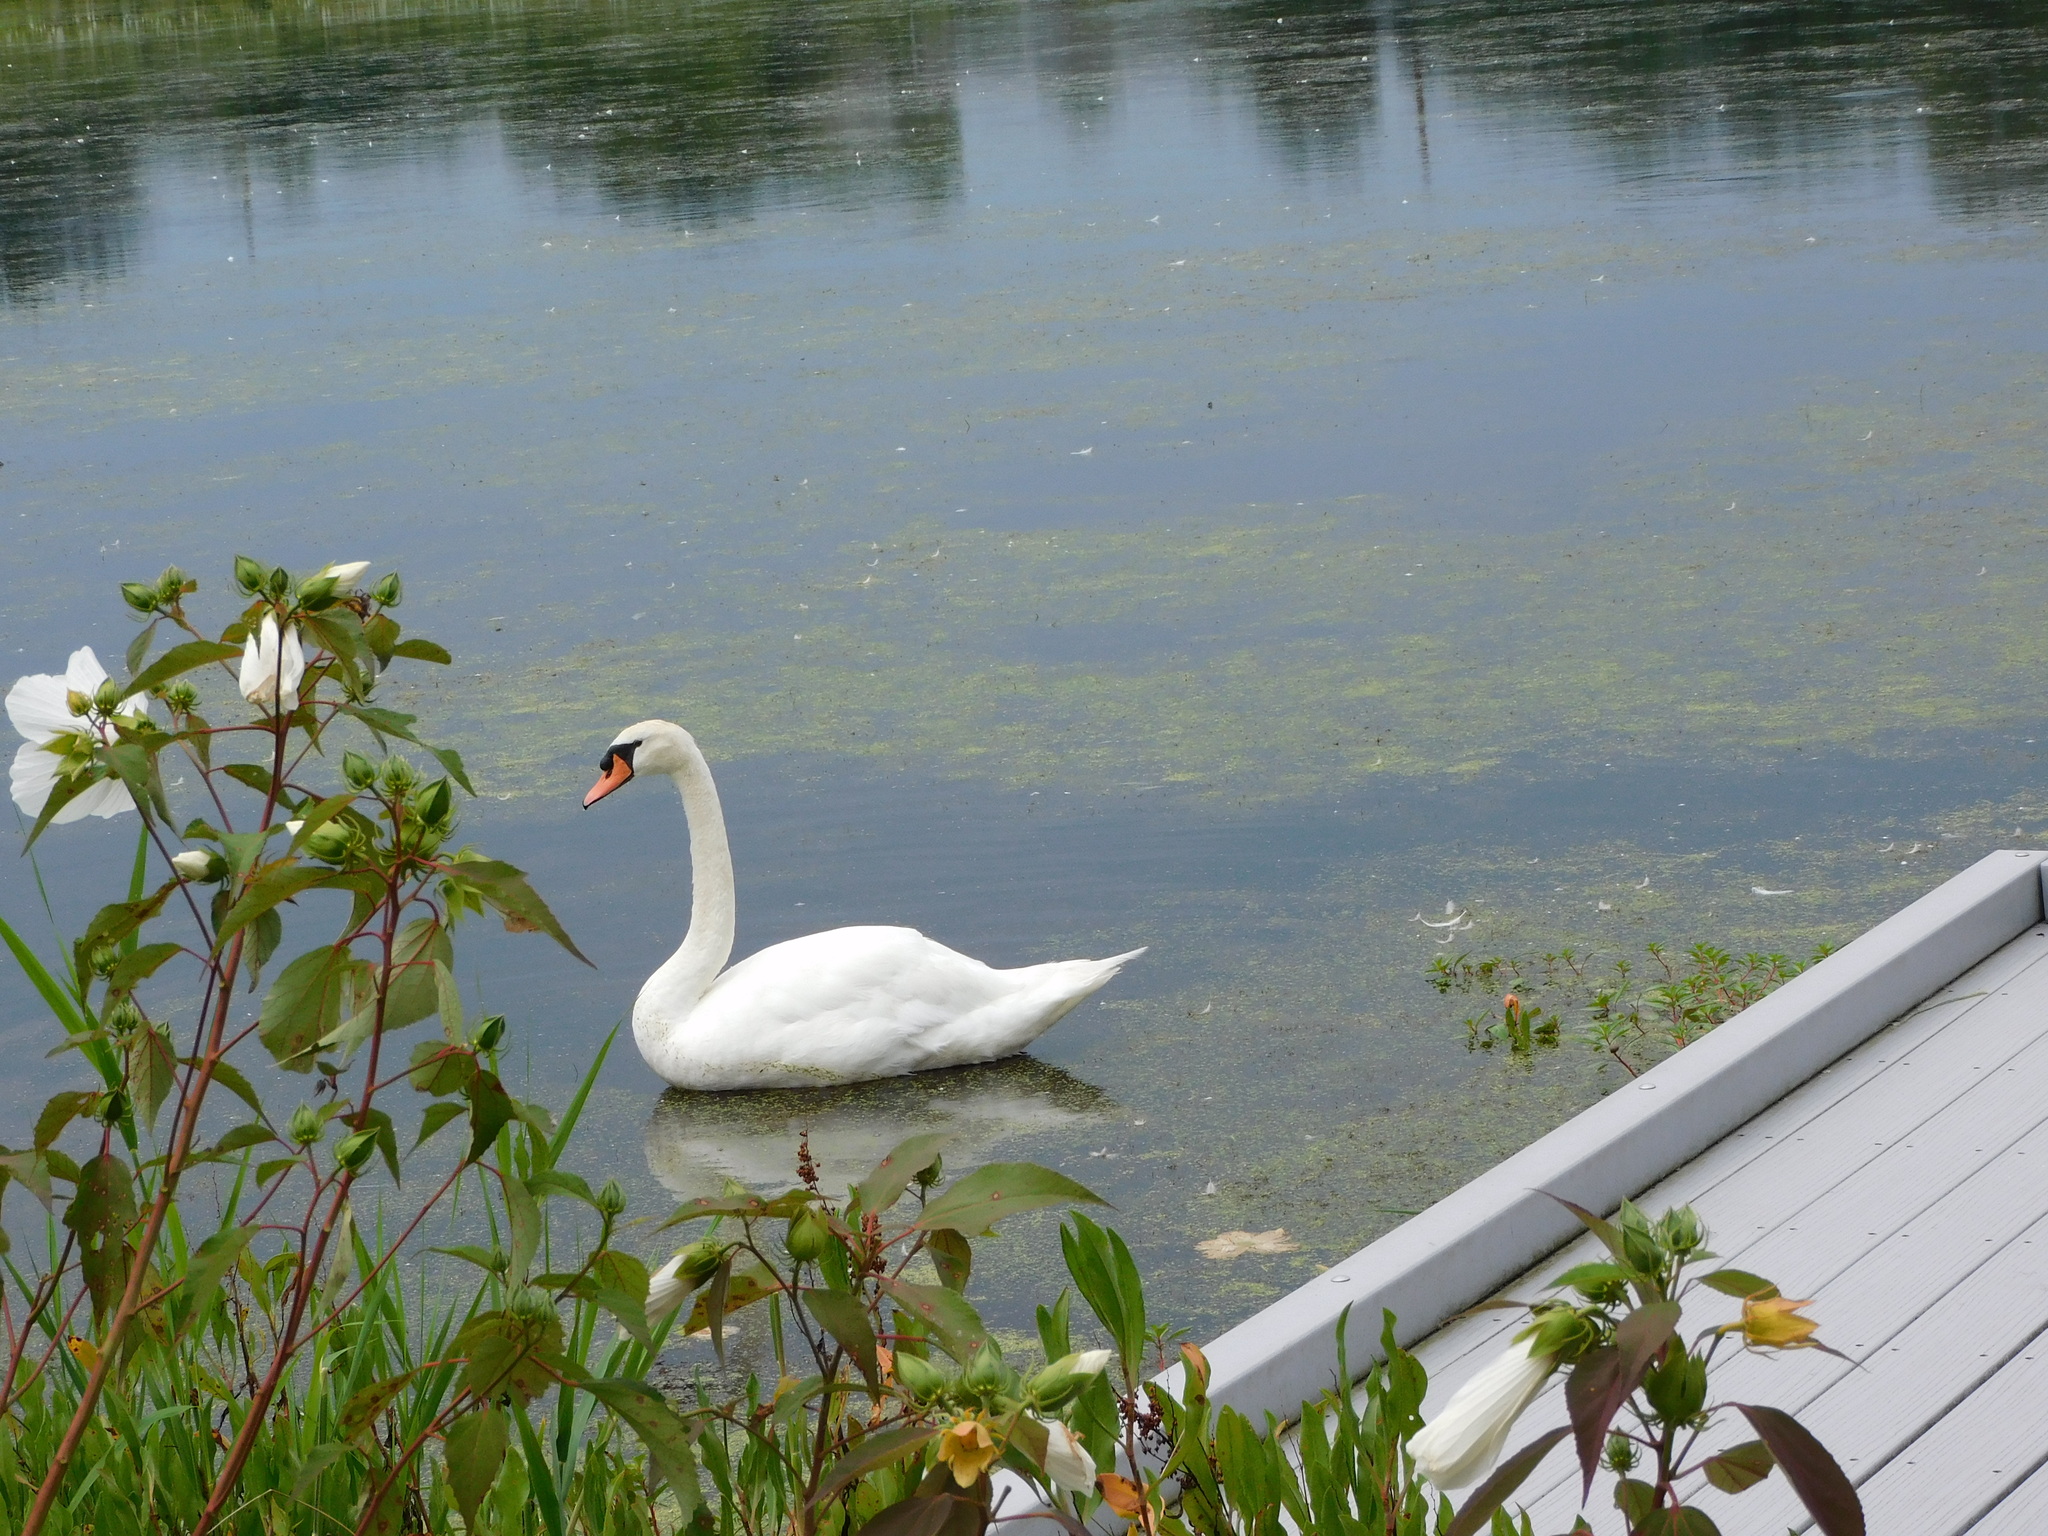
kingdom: Animalia
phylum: Chordata
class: Aves
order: Anseriformes
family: Anatidae
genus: Cygnus
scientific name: Cygnus olor
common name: Mute swan
